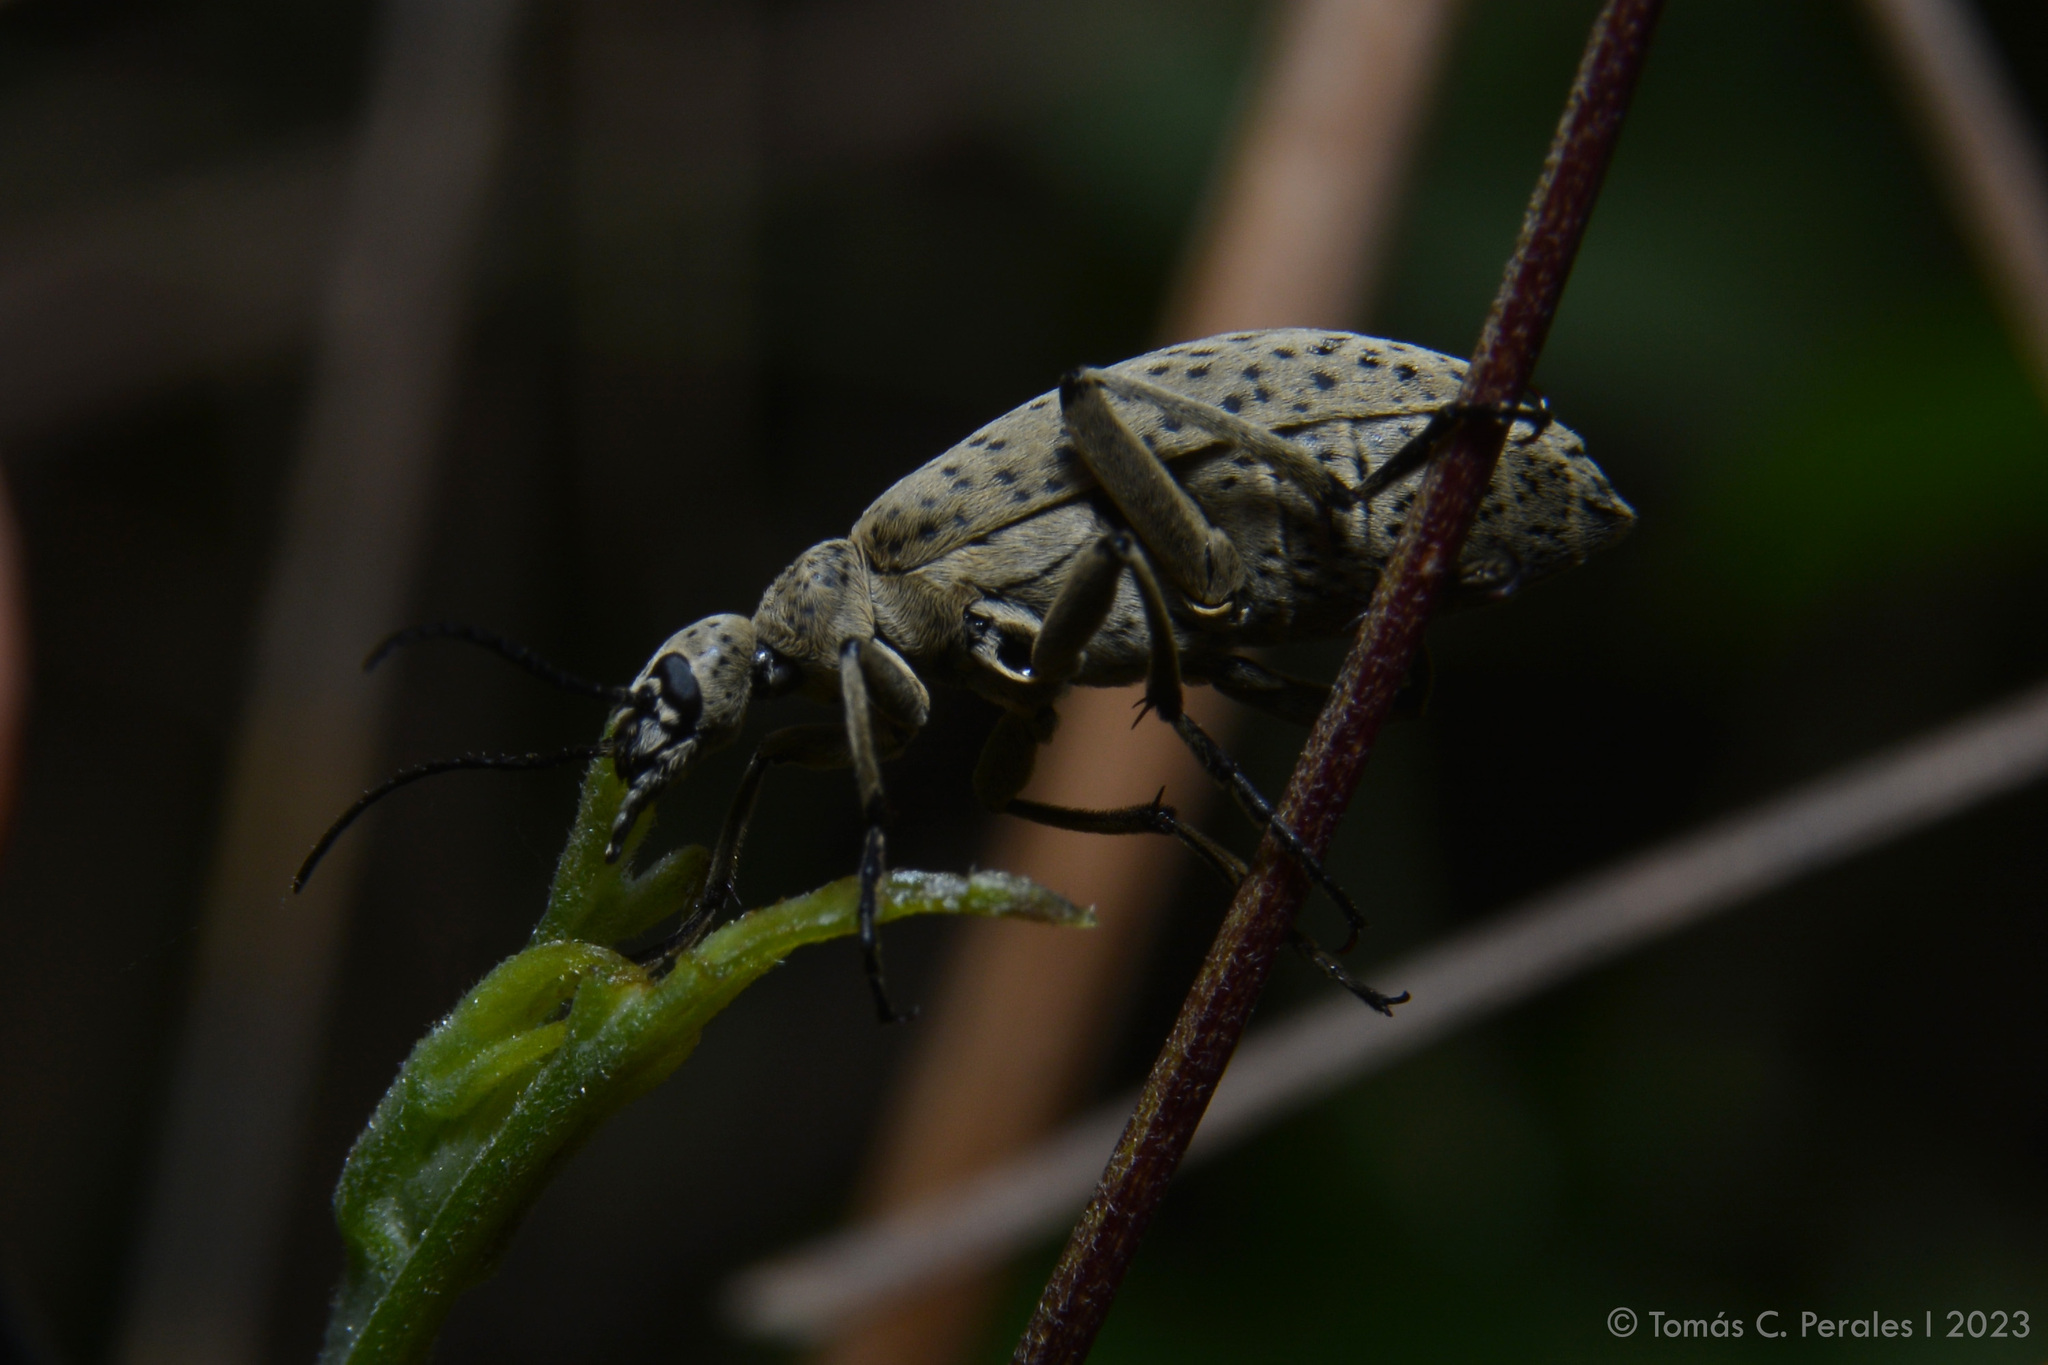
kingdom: Animalia
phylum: Arthropoda
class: Insecta
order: Coleoptera
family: Meloidae
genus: Epicauta
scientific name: Epicauta
